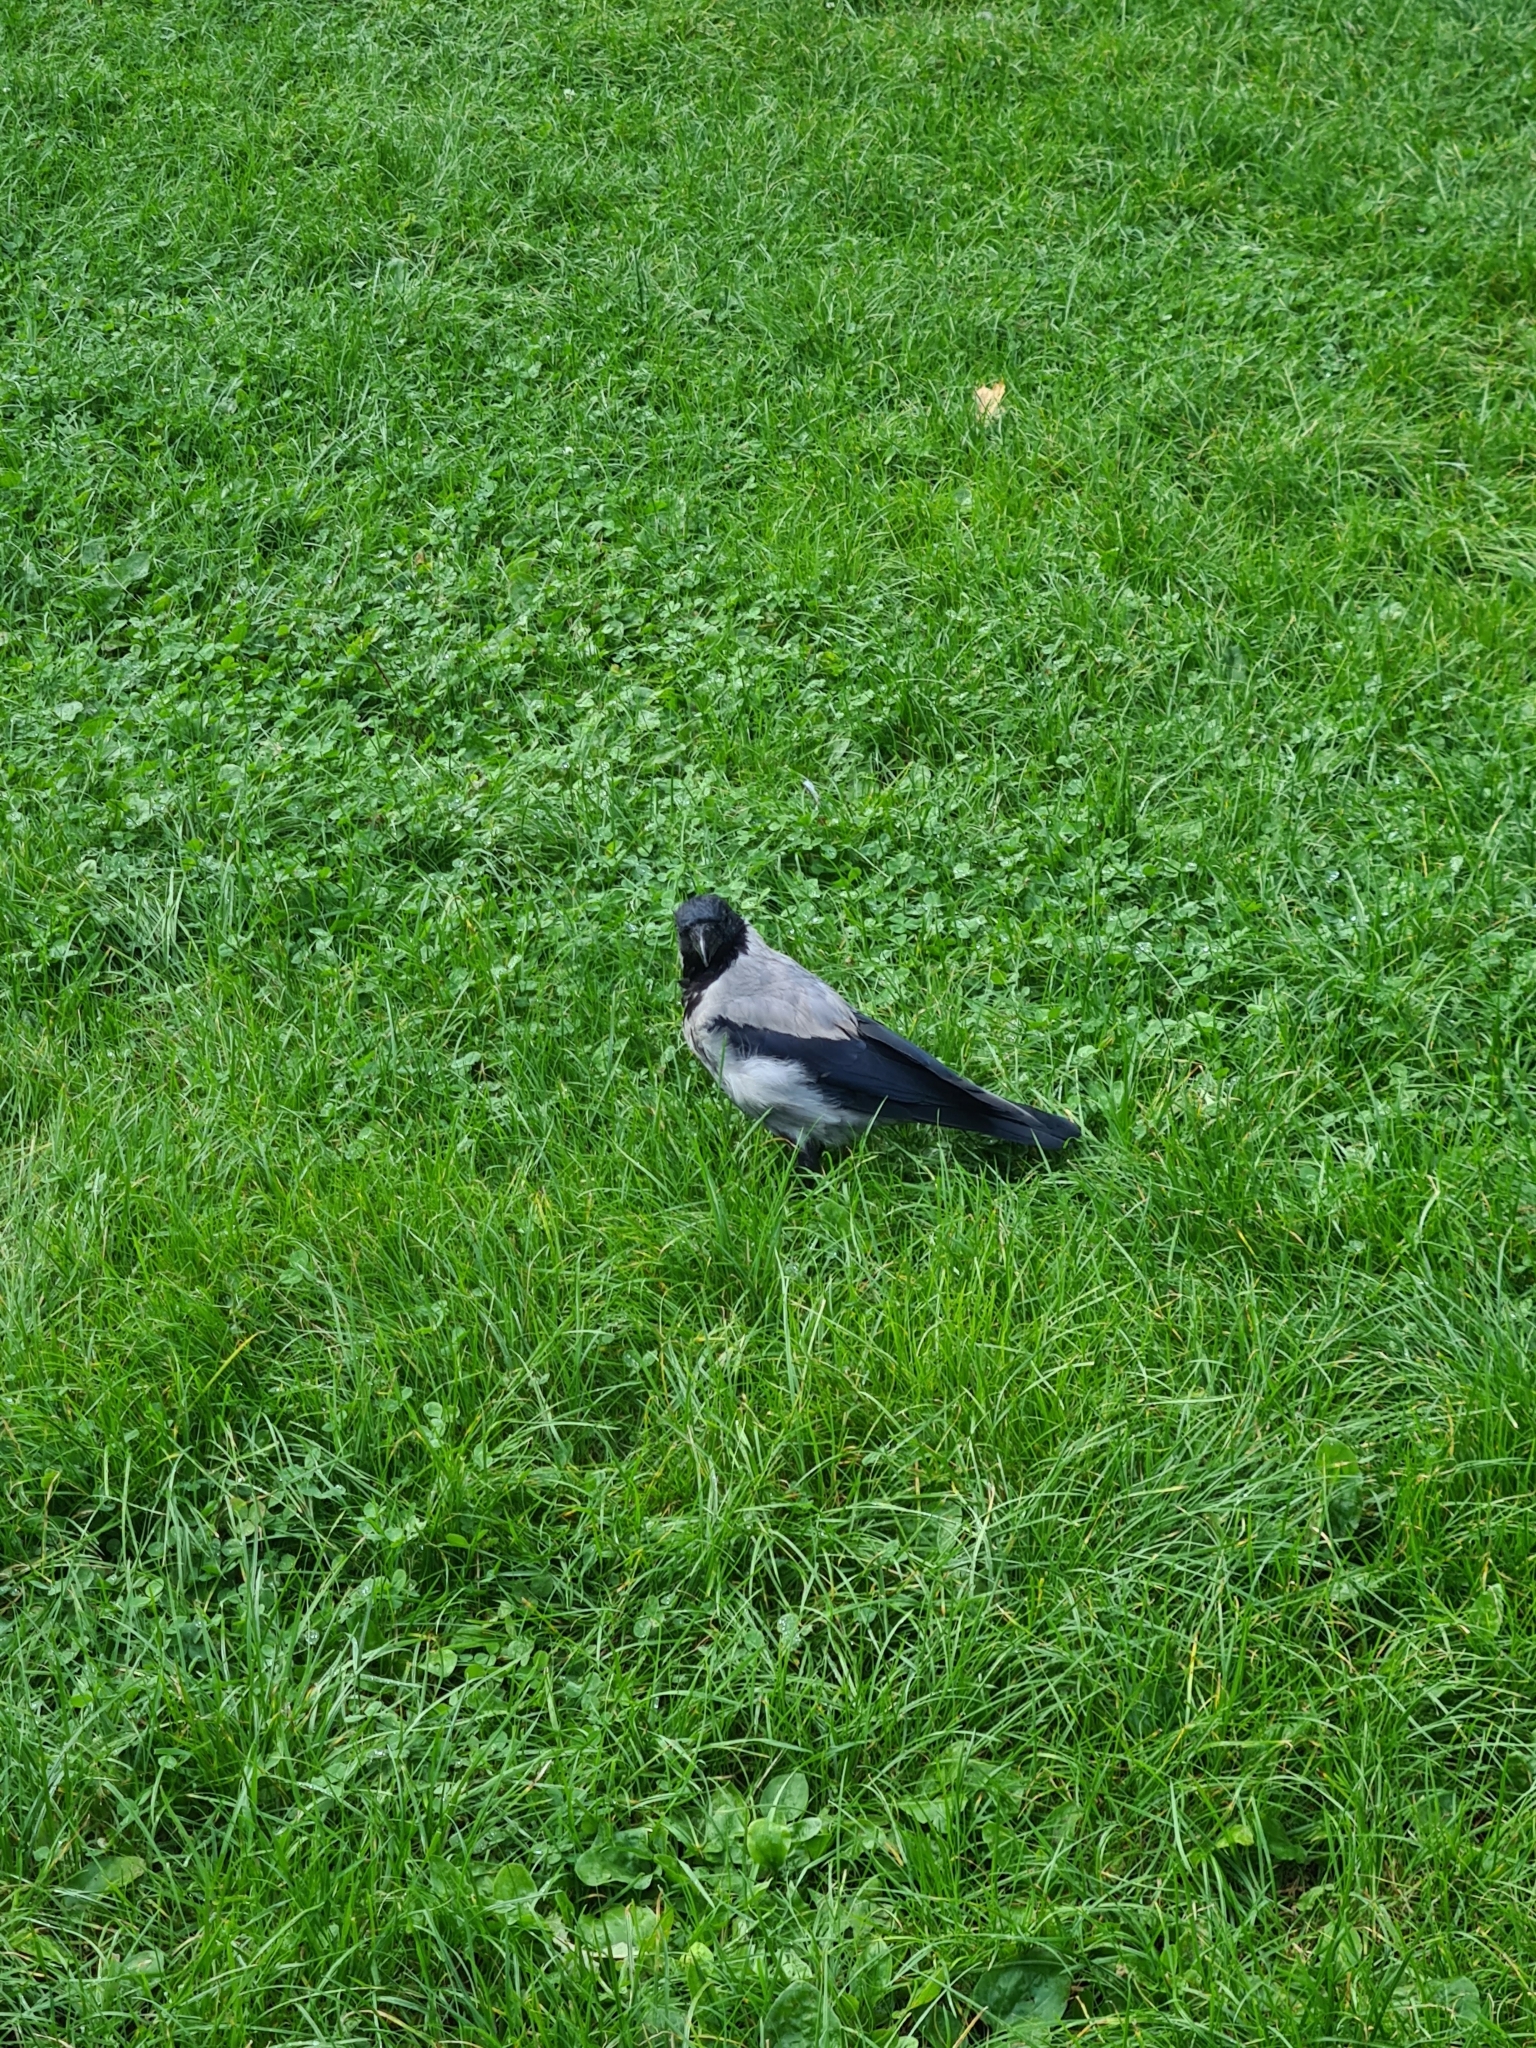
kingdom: Animalia
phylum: Chordata
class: Aves
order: Passeriformes
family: Corvidae
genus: Corvus
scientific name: Corvus cornix
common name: Hooded crow
